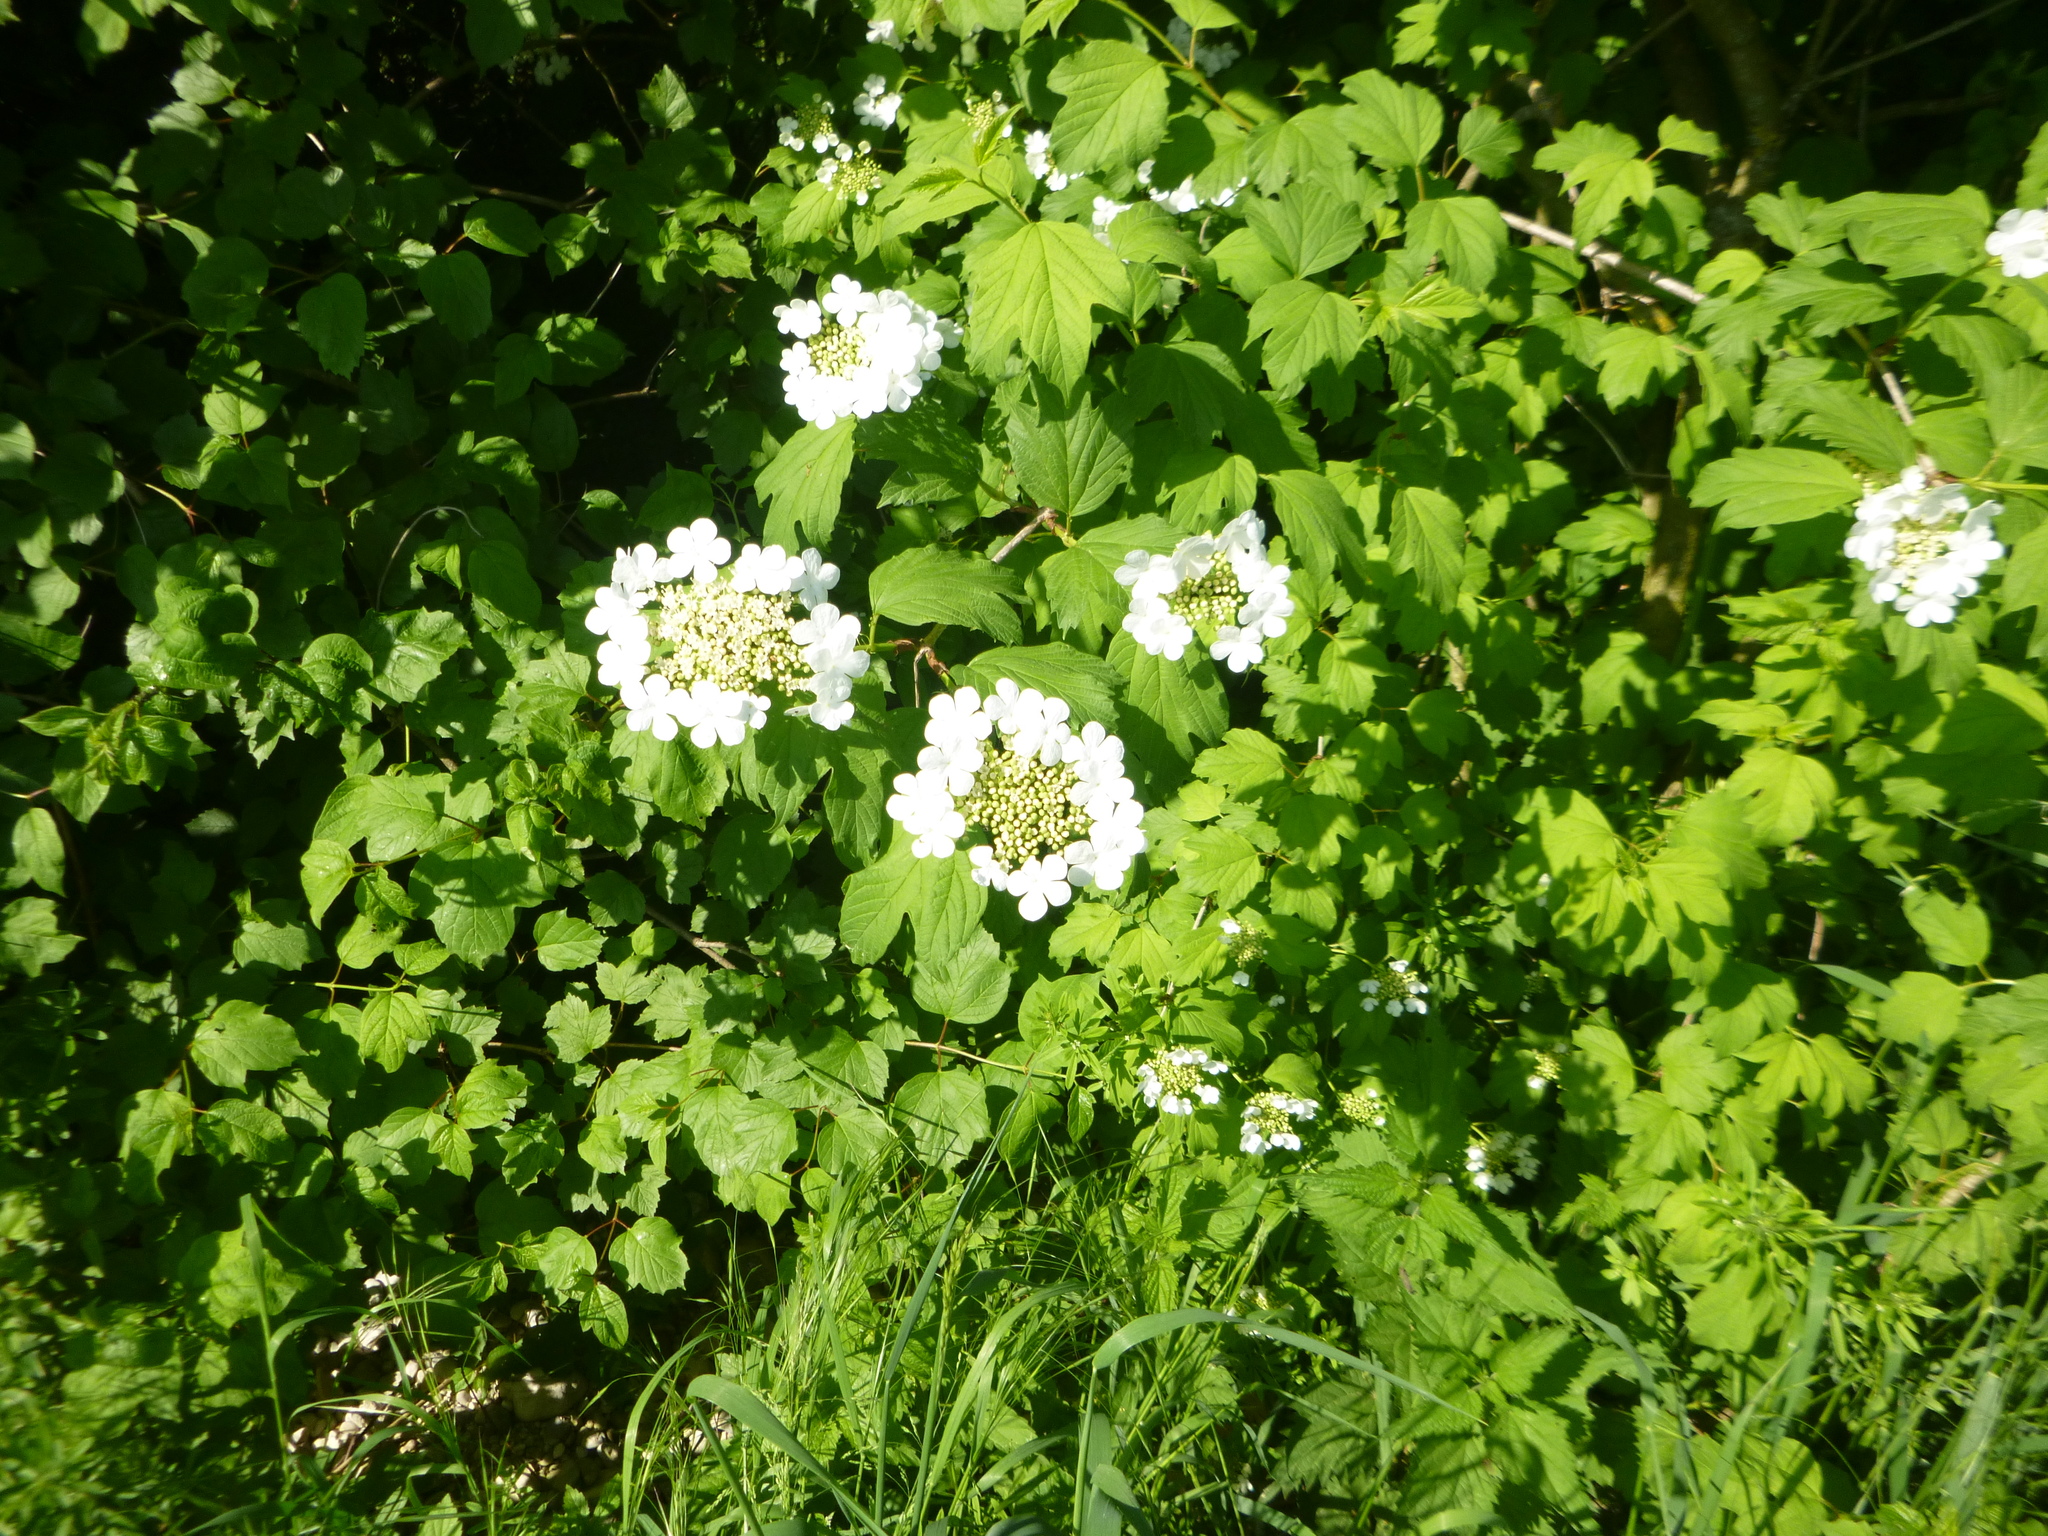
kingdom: Plantae
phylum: Tracheophyta
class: Magnoliopsida
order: Dipsacales
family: Viburnaceae
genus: Viburnum
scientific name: Viburnum opulus
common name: Guelder-rose
